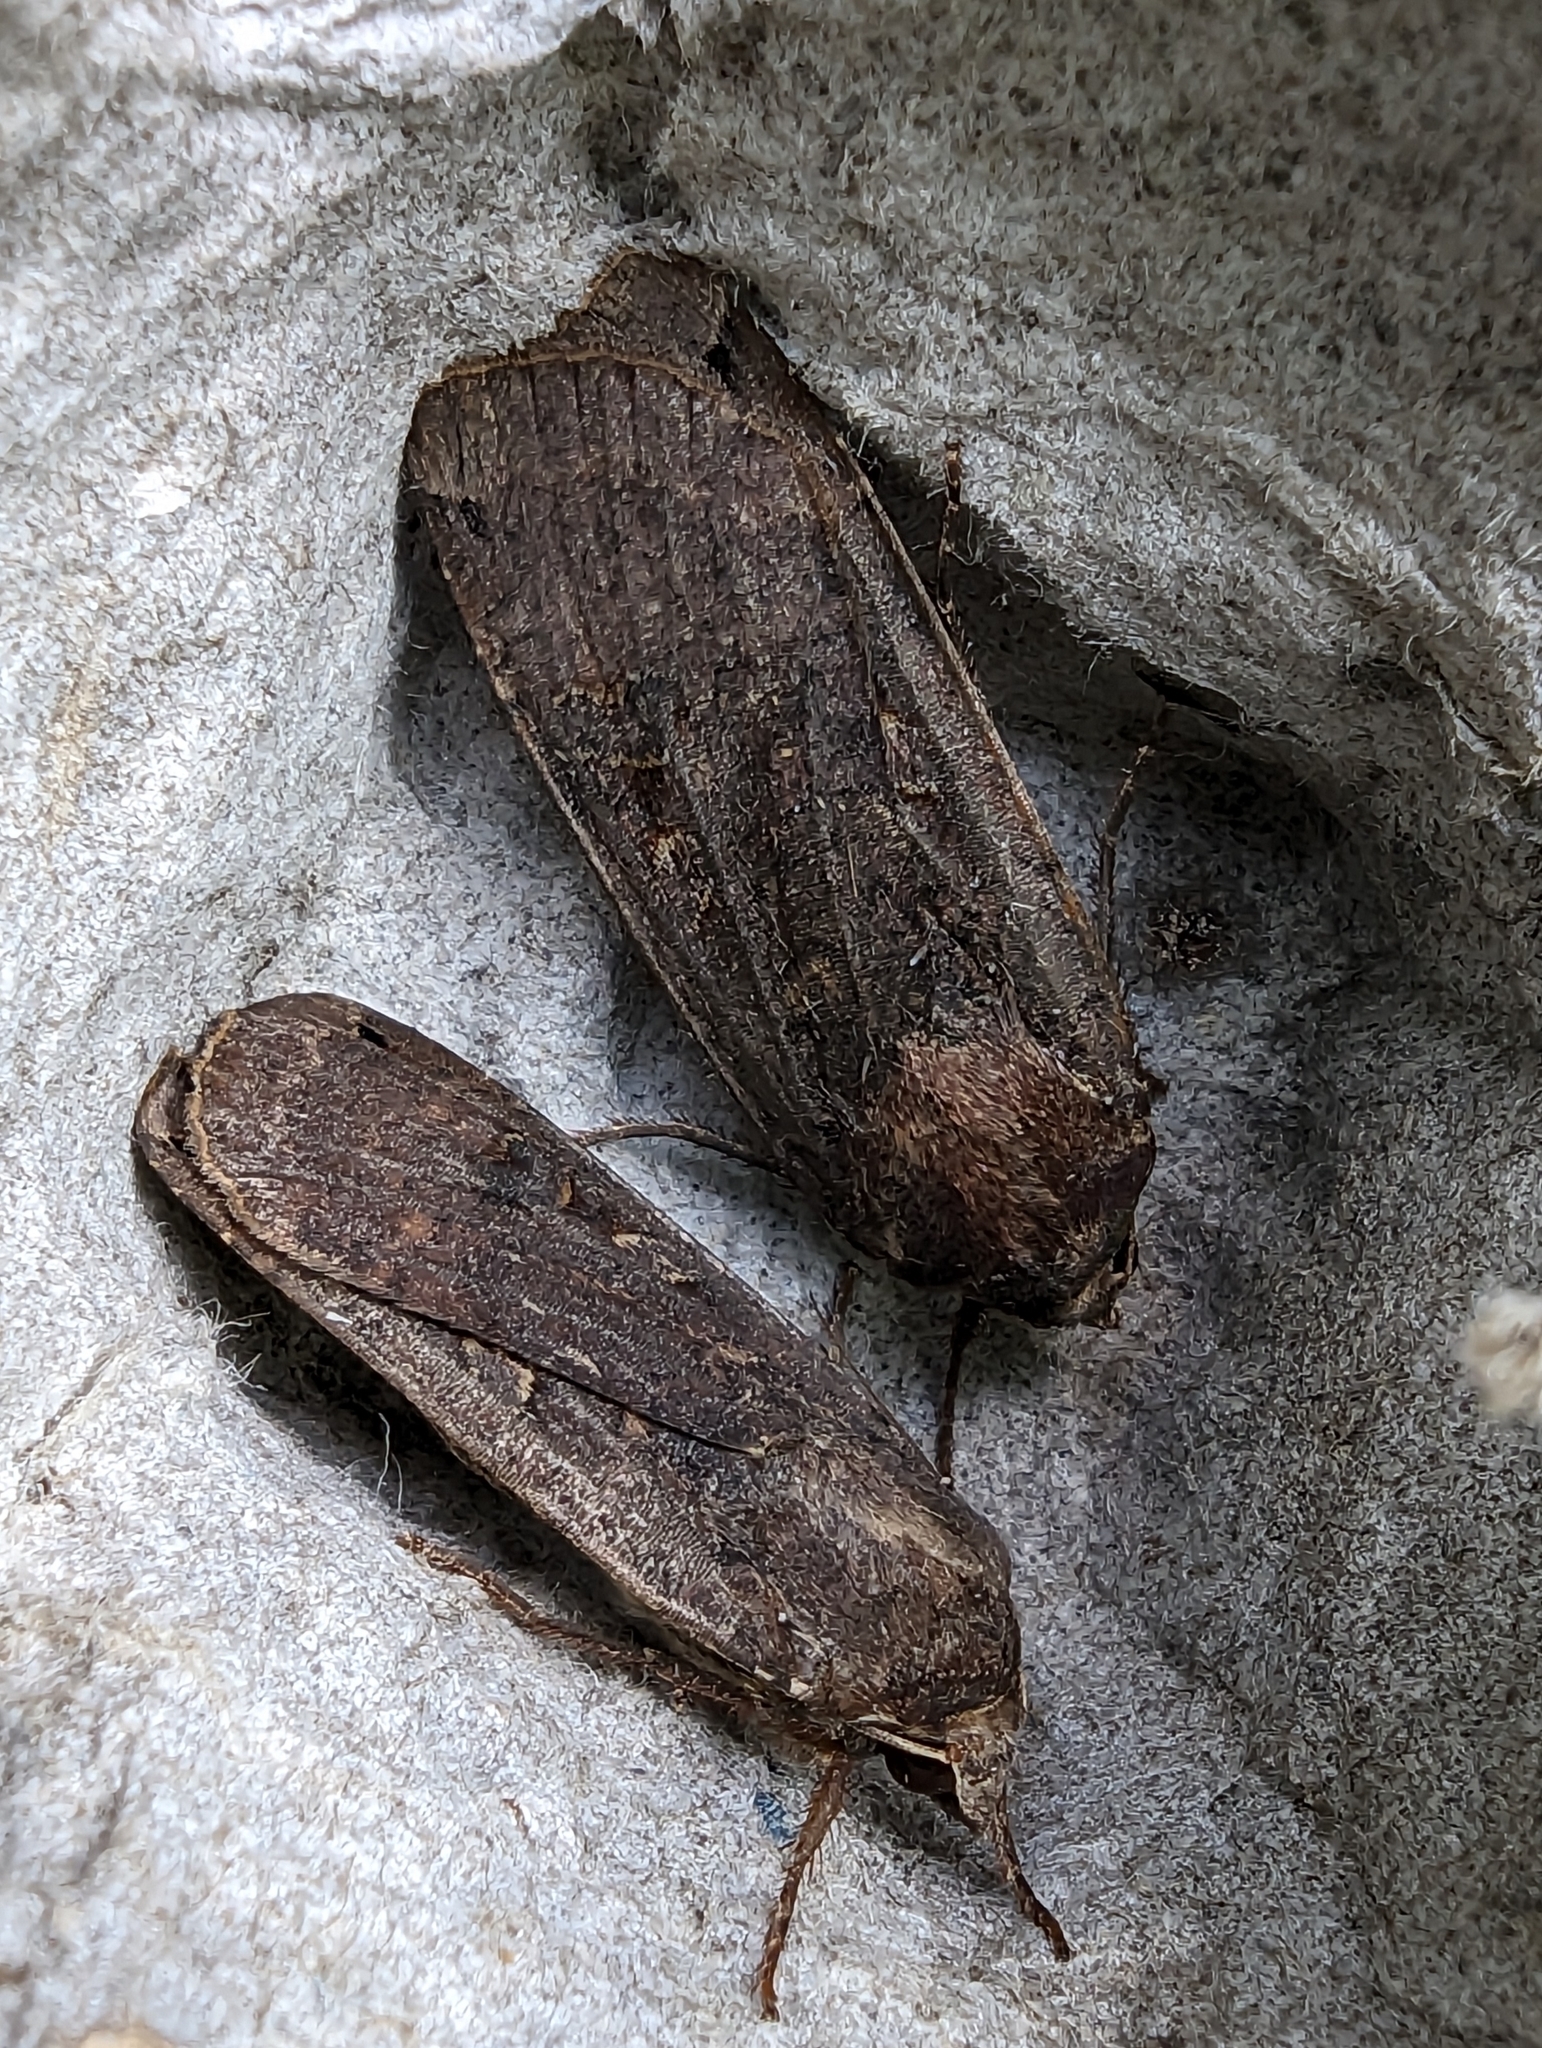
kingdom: Animalia
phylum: Arthropoda
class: Insecta
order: Lepidoptera
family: Noctuidae
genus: Noctua
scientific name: Noctua pronuba
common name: Large yellow underwing
